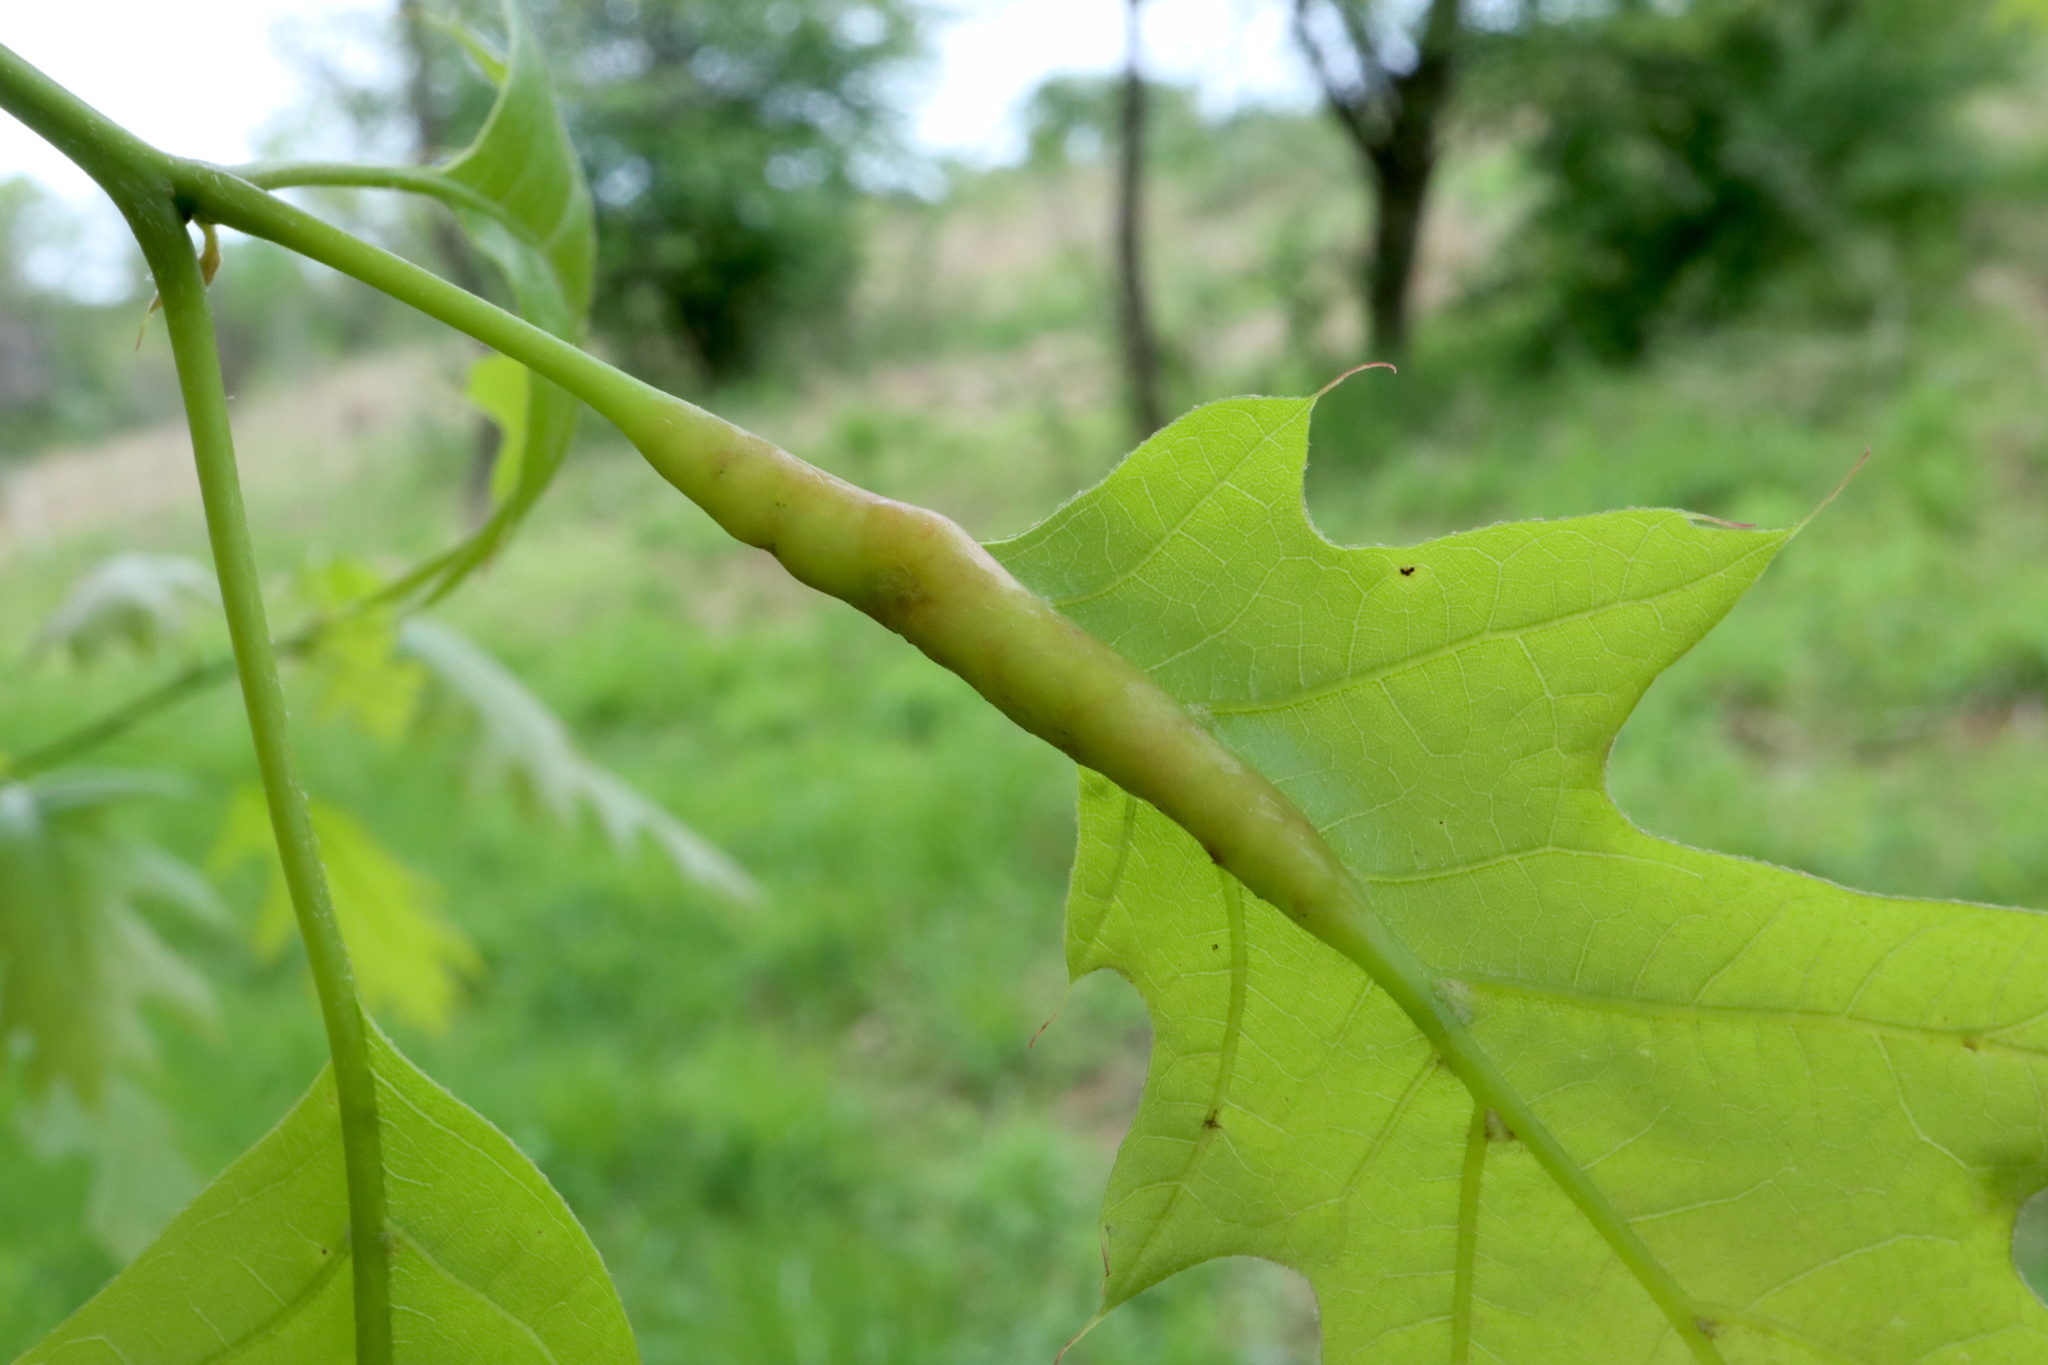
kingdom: Animalia
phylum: Arthropoda
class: Insecta
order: Hymenoptera
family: Cynipidae
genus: Melikaiella
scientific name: Melikaiella tumifica
